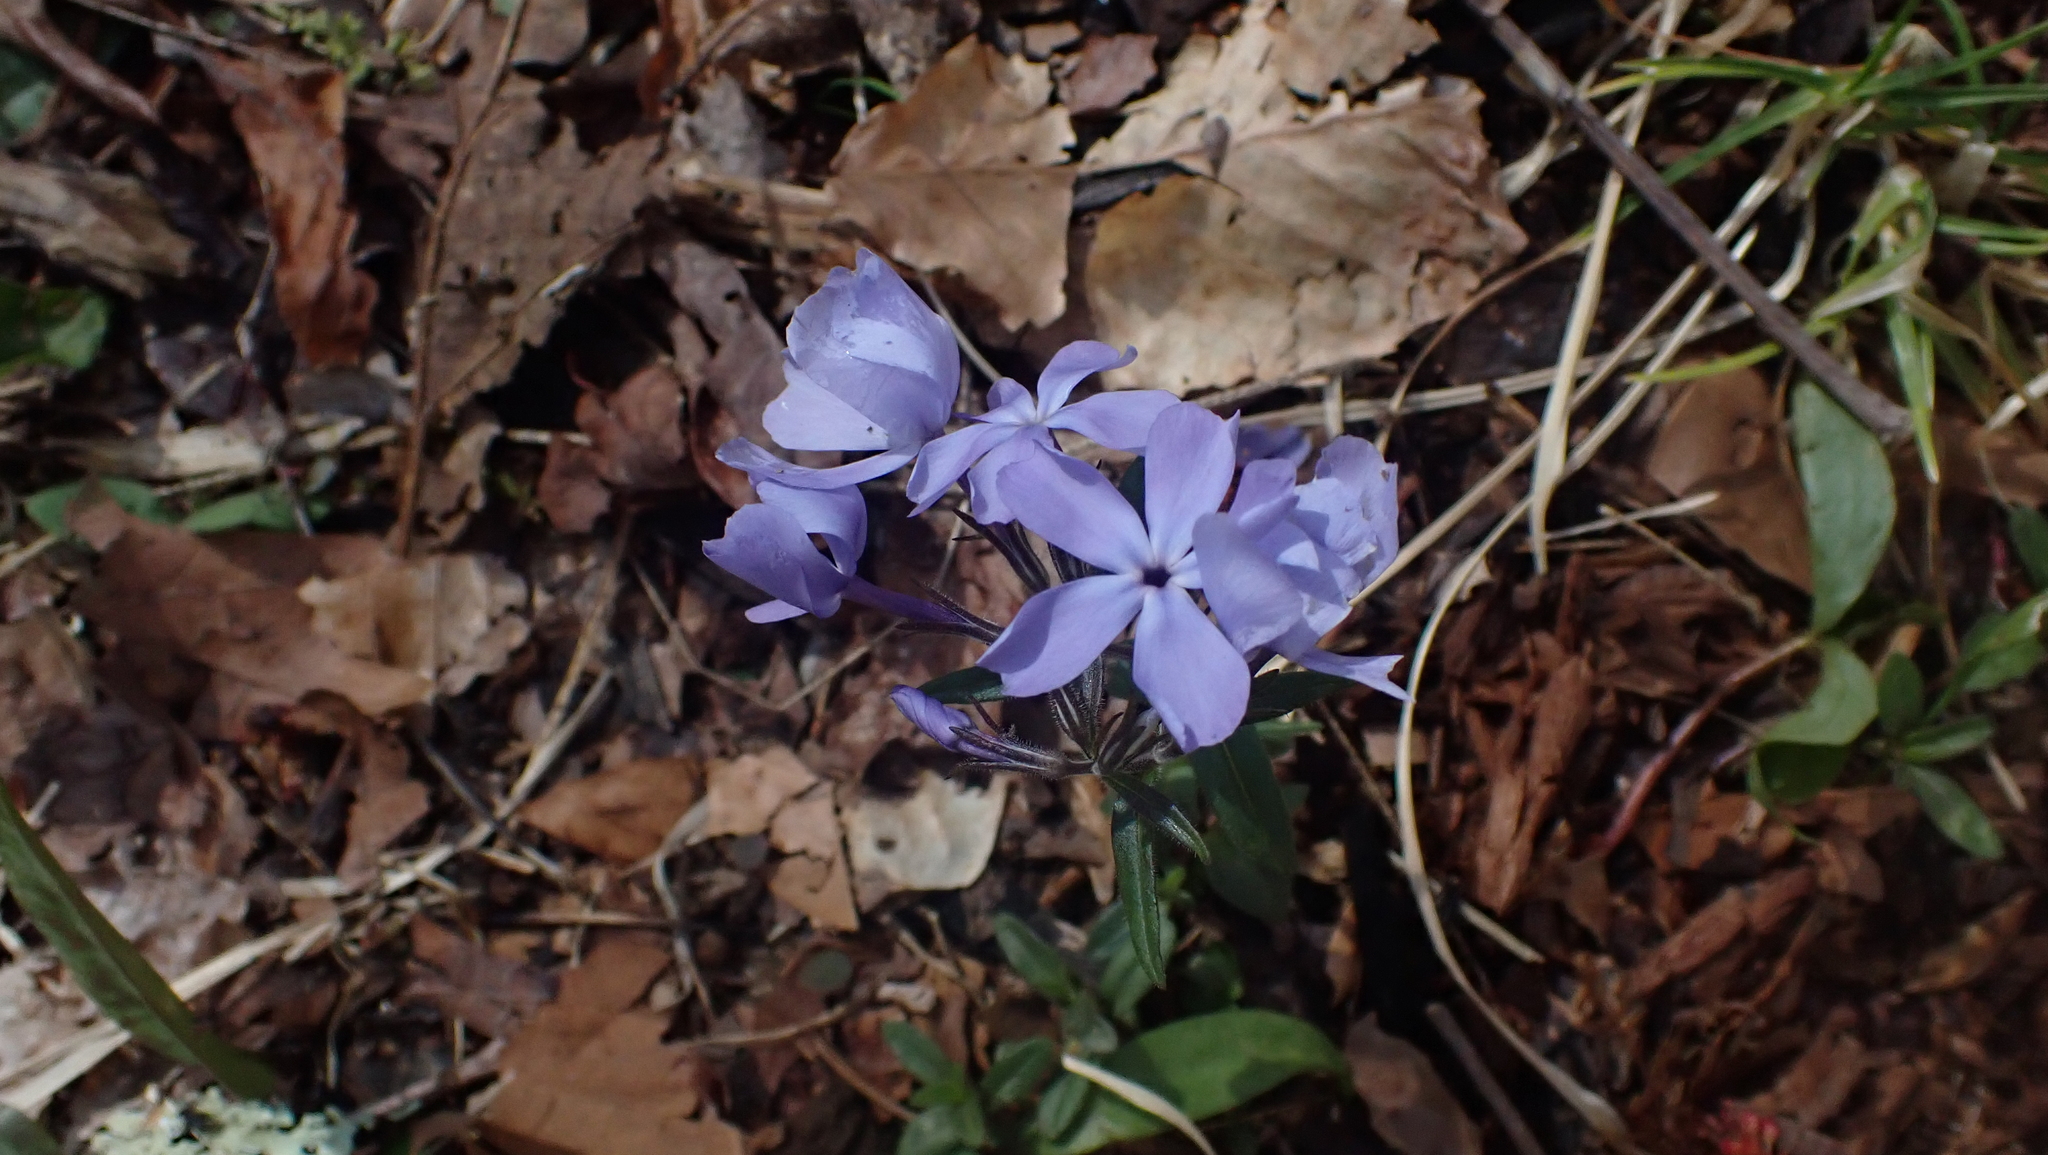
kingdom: Plantae
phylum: Tracheophyta
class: Magnoliopsida
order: Ericales
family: Polemoniaceae
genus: Phlox
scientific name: Phlox divaricata
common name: Blue phlox
